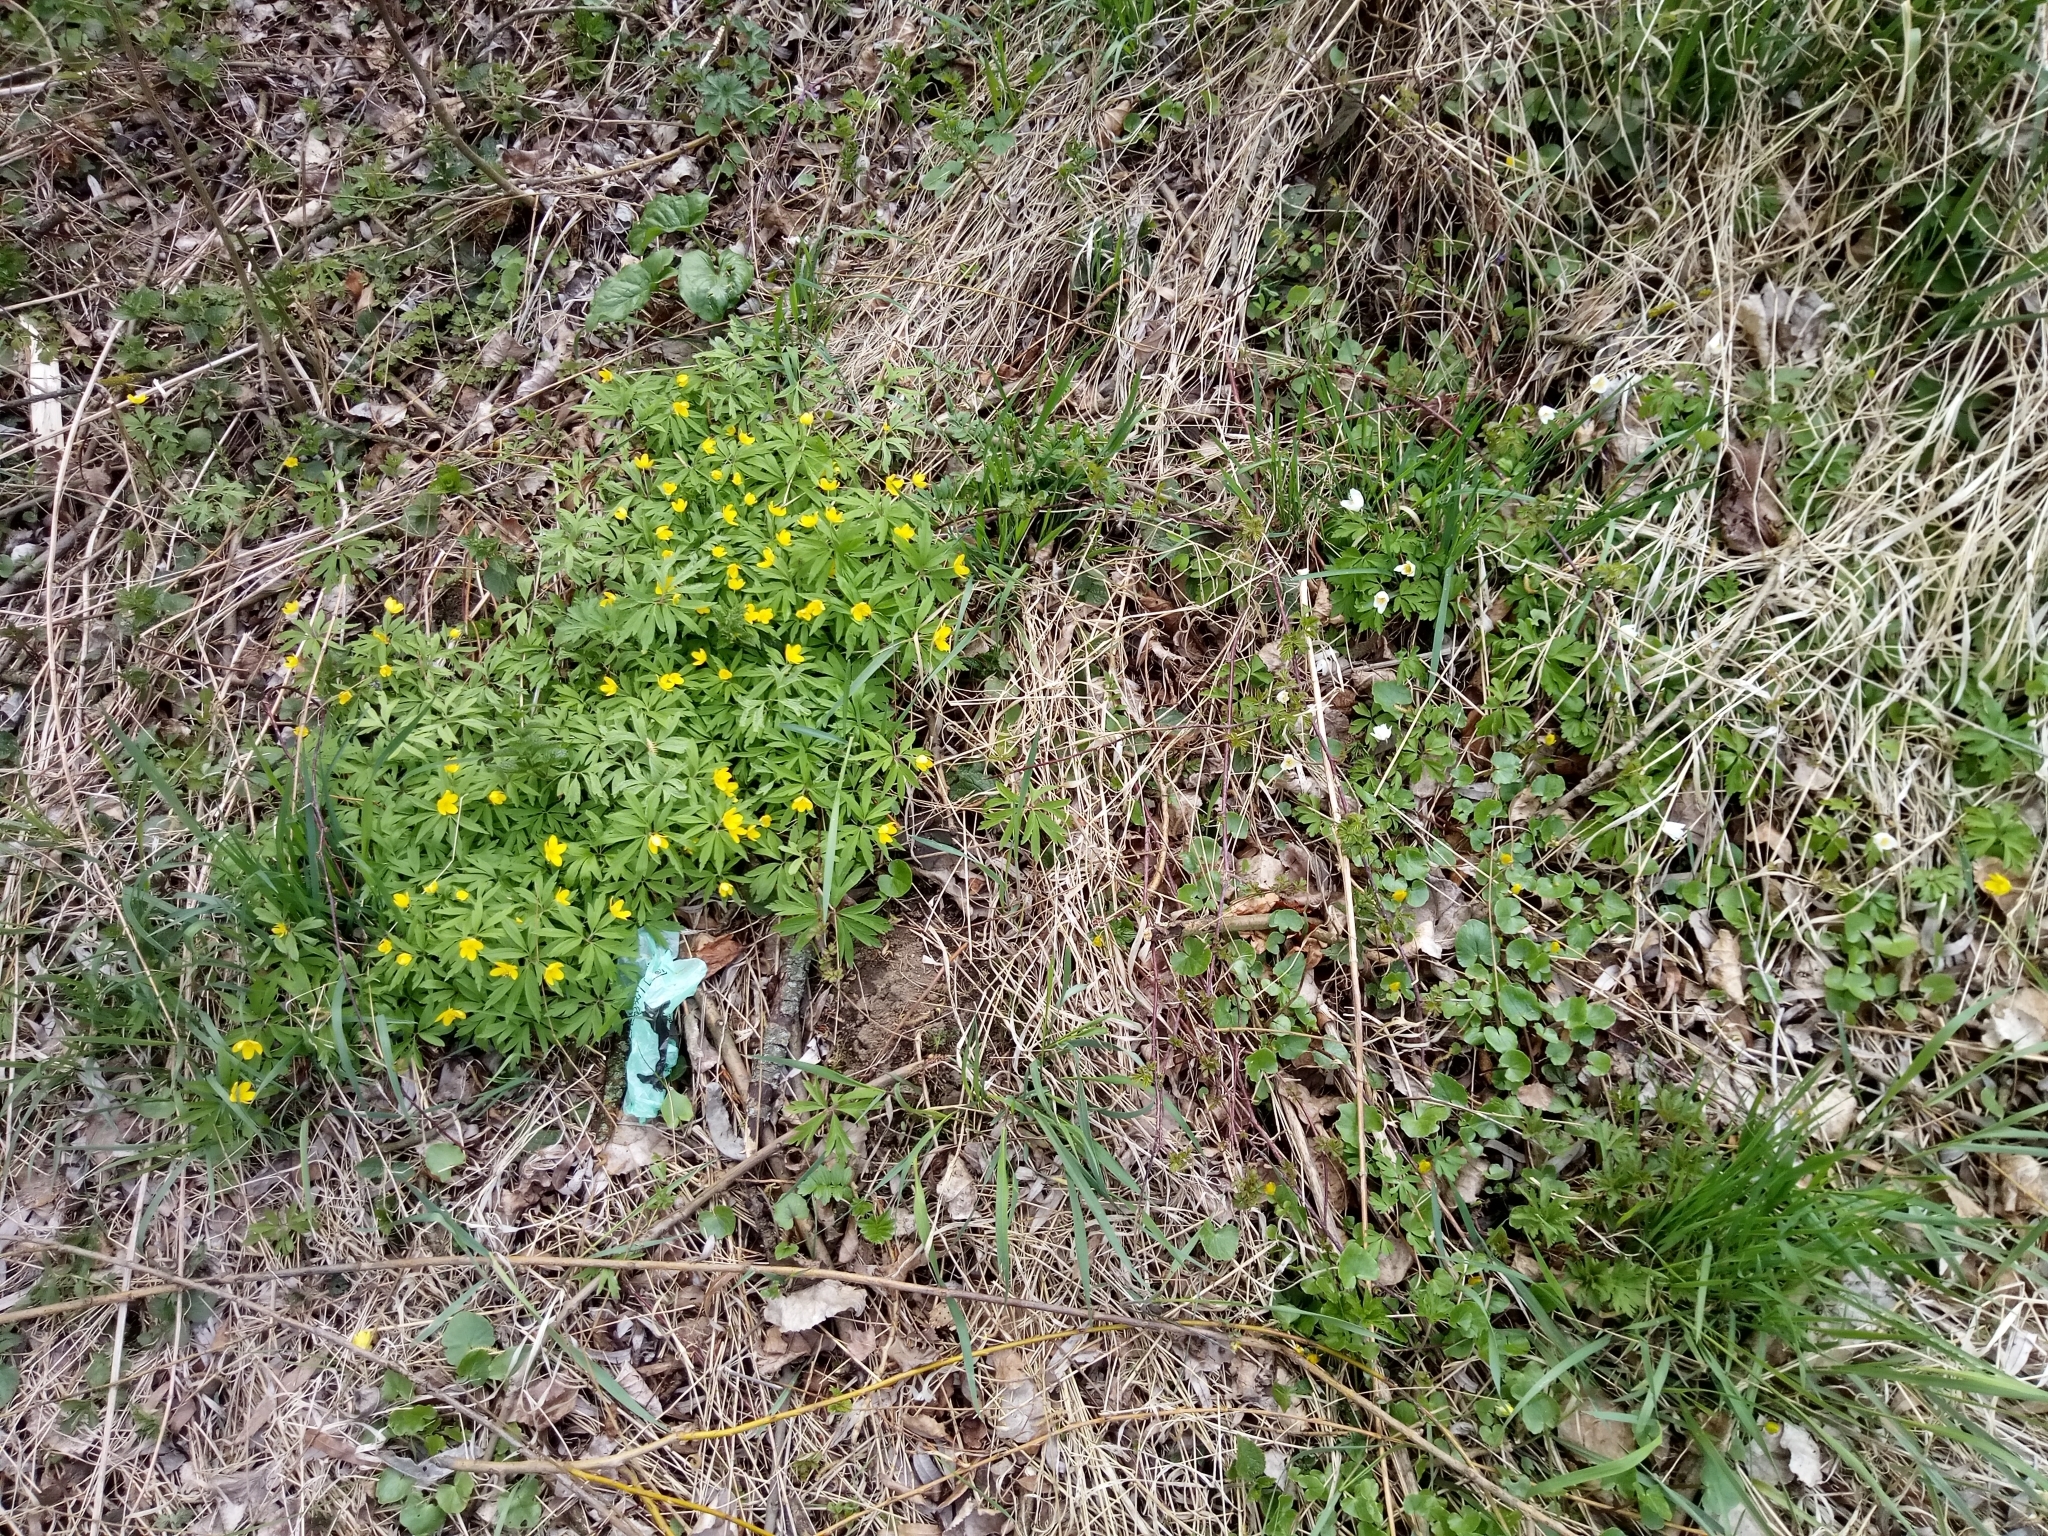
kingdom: Plantae
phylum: Tracheophyta
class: Magnoliopsida
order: Ranunculales
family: Ranunculaceae
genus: Anemone
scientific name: Anemone ranunculoides
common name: Yellow anemone
